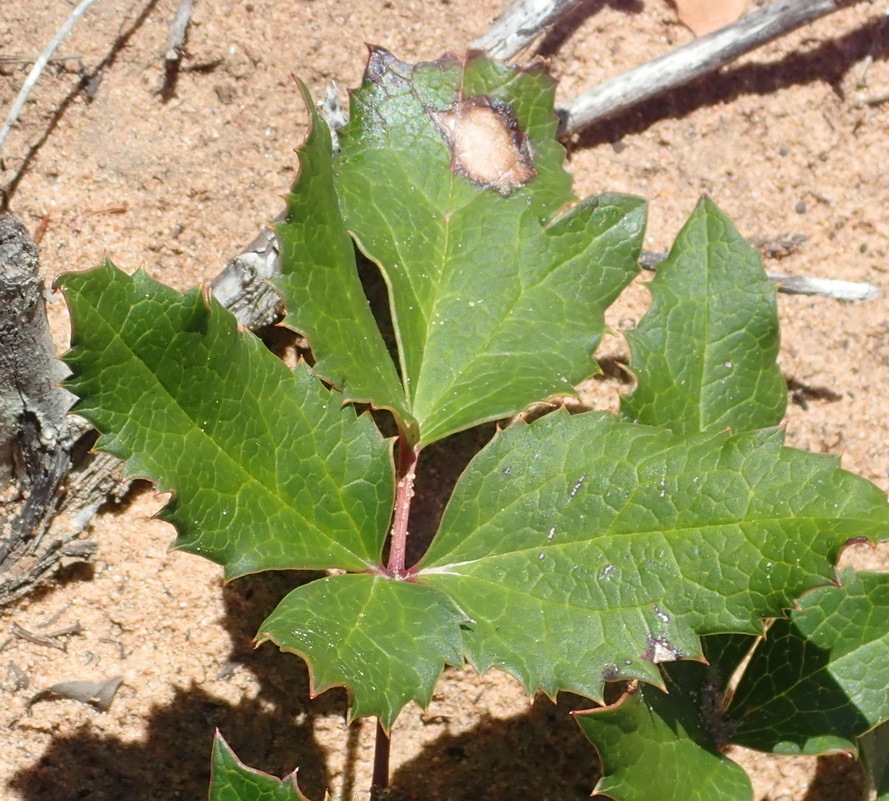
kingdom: Plantae
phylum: Tracheophyta
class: Magnoliopsida
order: Ranunculales
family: Ranunculaceae
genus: Knowltonia
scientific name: Knowltonia vesicatoria
